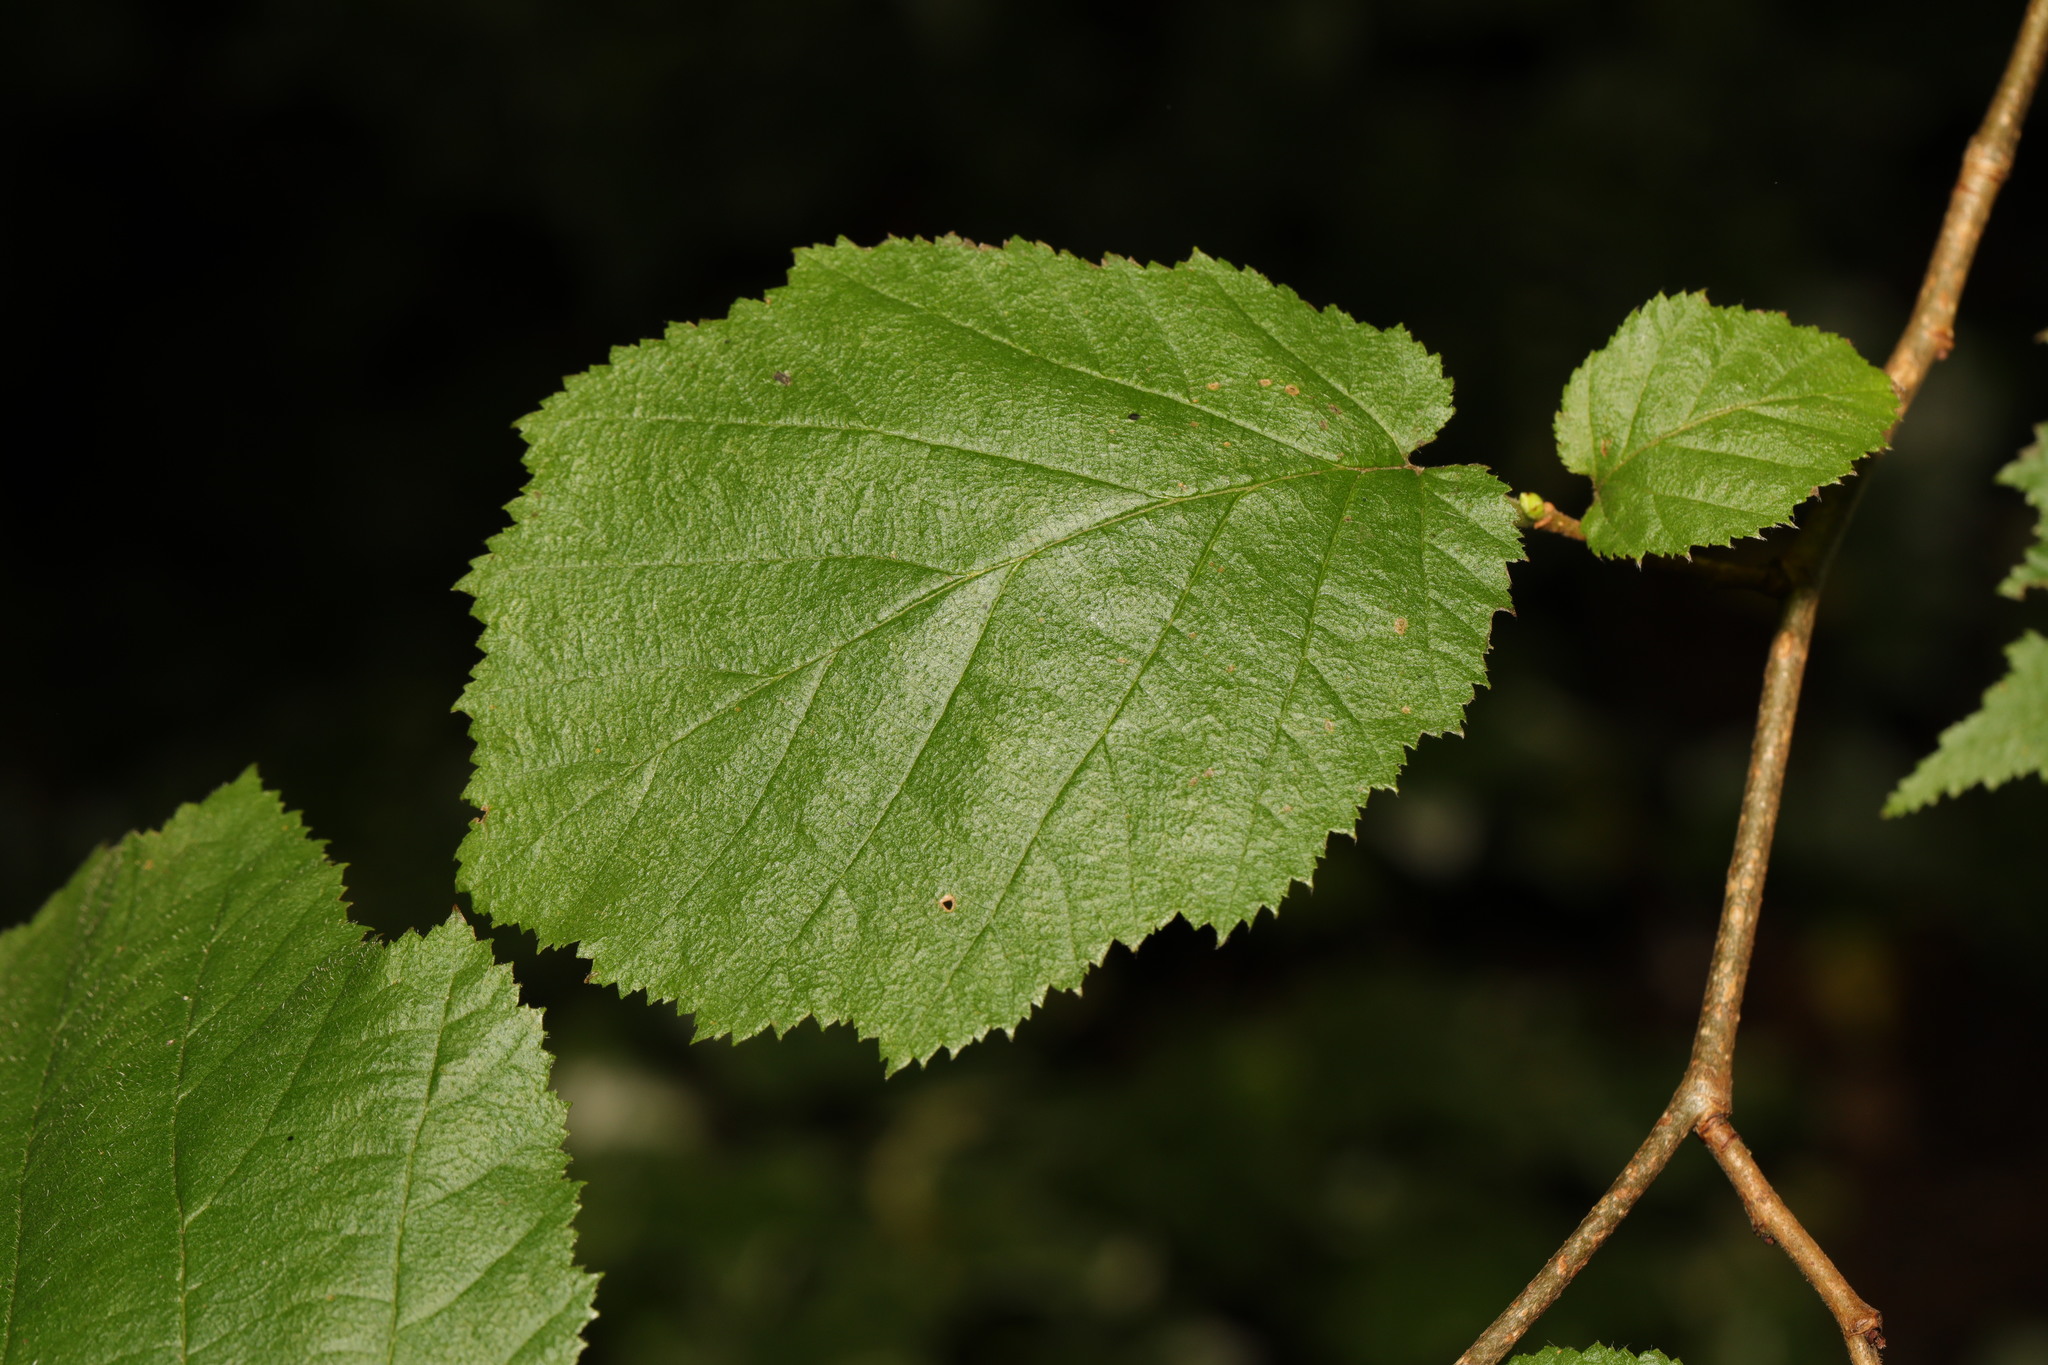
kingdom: Plantae
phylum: Tracheophyta
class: Magnoliopsida
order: Fagales
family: Betulaceae
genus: Corylus
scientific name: Corylus avellana
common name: European hazel
